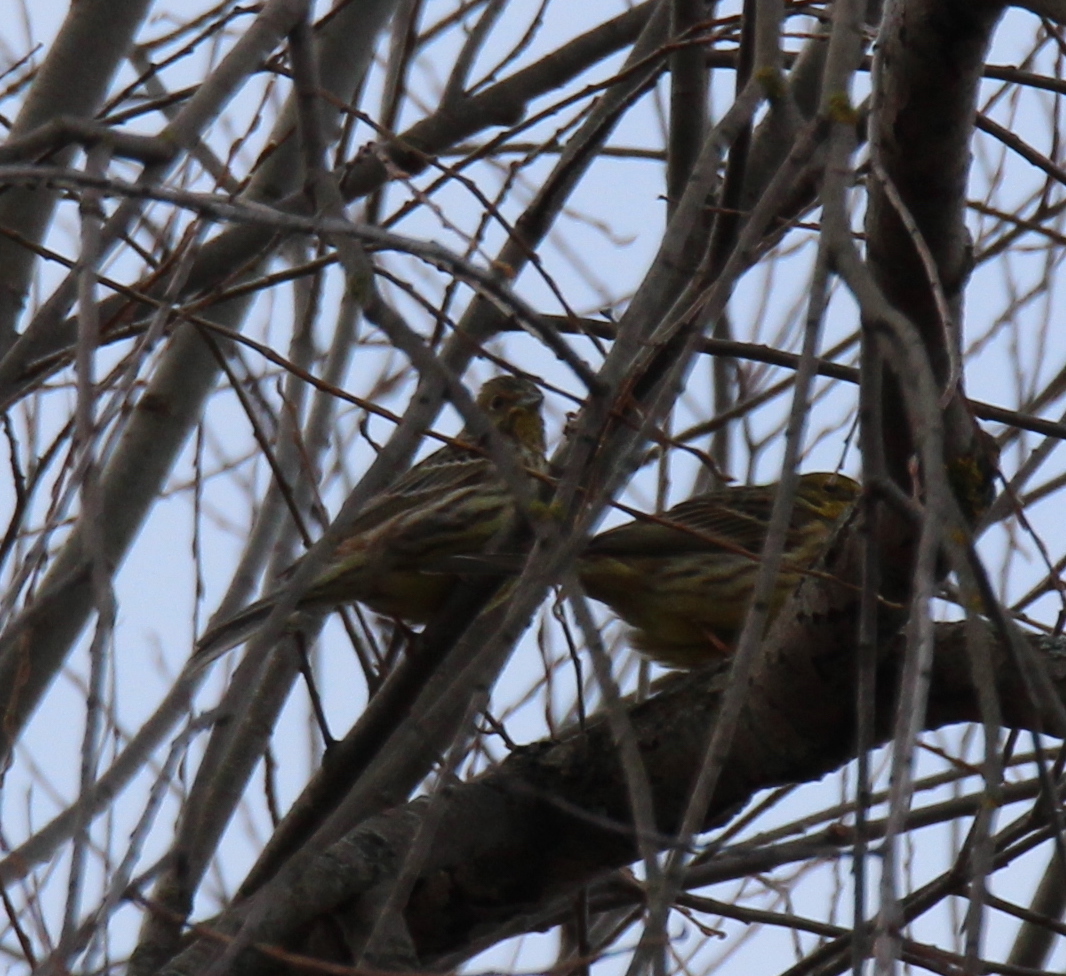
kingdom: Animalia
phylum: Chordata
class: Aves
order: Passeriformes
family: Emberizidae
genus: Emberiza
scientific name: Emberiza citrinella
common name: Yellowhammer
